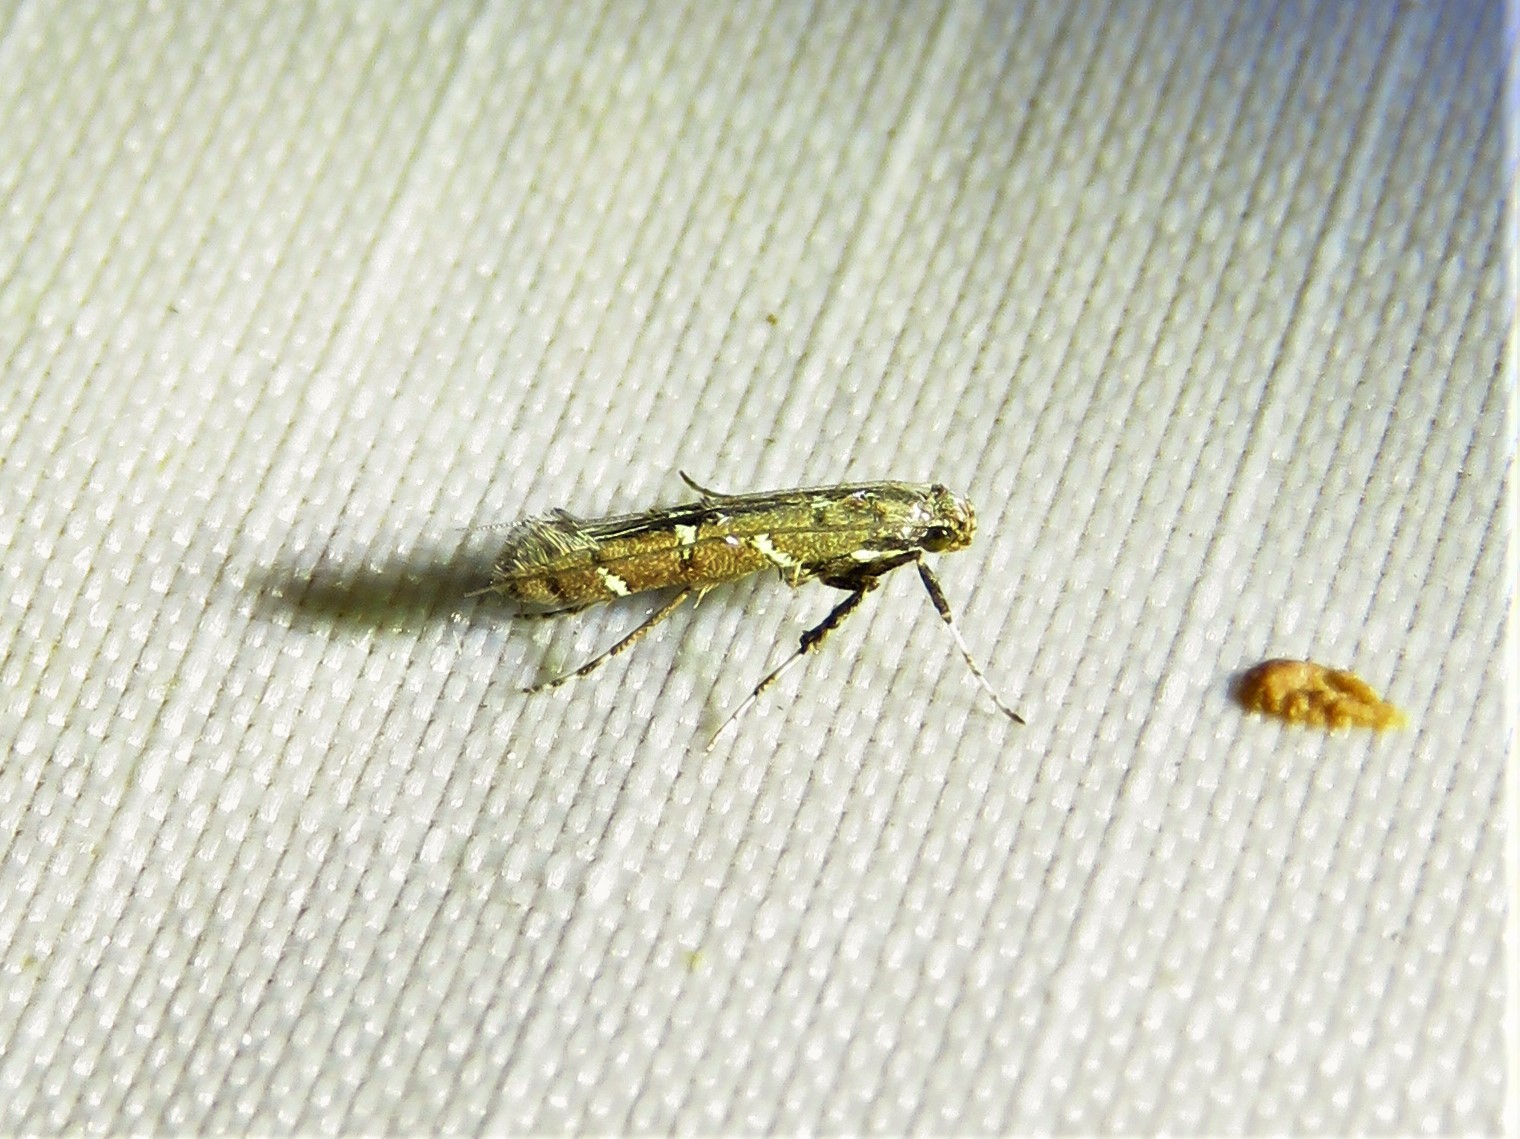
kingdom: Animalia
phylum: Arthropoda
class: Insecta
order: Lepidoptera
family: Gracillariidae
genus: Caloptilia
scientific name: Caloptilia triadicae
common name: Tallow leaf roller
